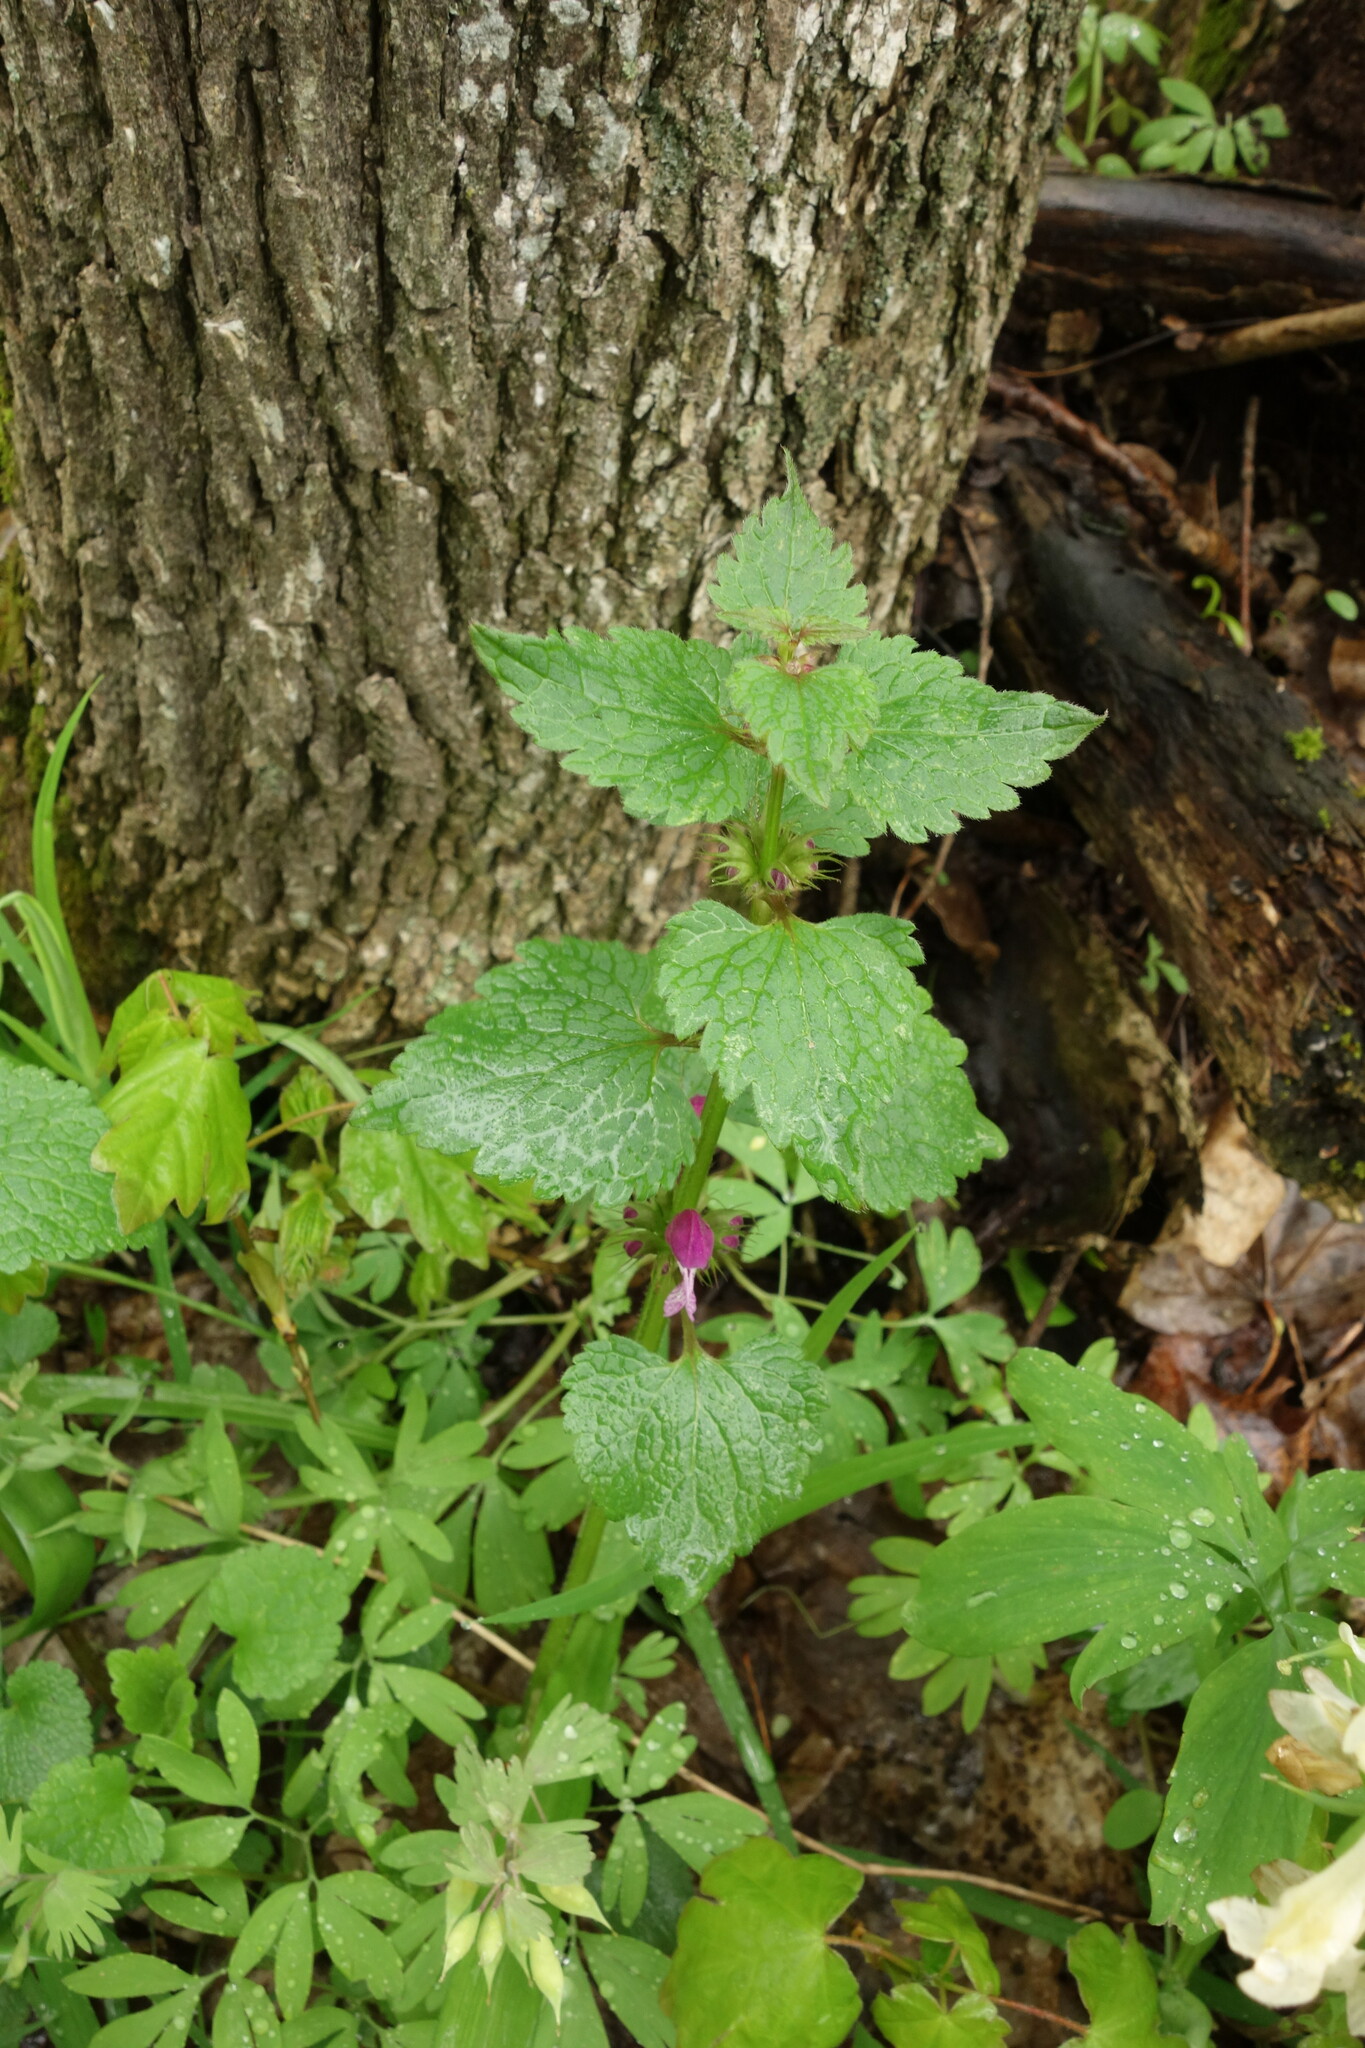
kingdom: Plantae
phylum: Tracheophyta
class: Magnoliopsida
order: Lamiales
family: Lamiaceae
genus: Lamium
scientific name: Lamium maculatum
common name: Spotted dead-nettle
